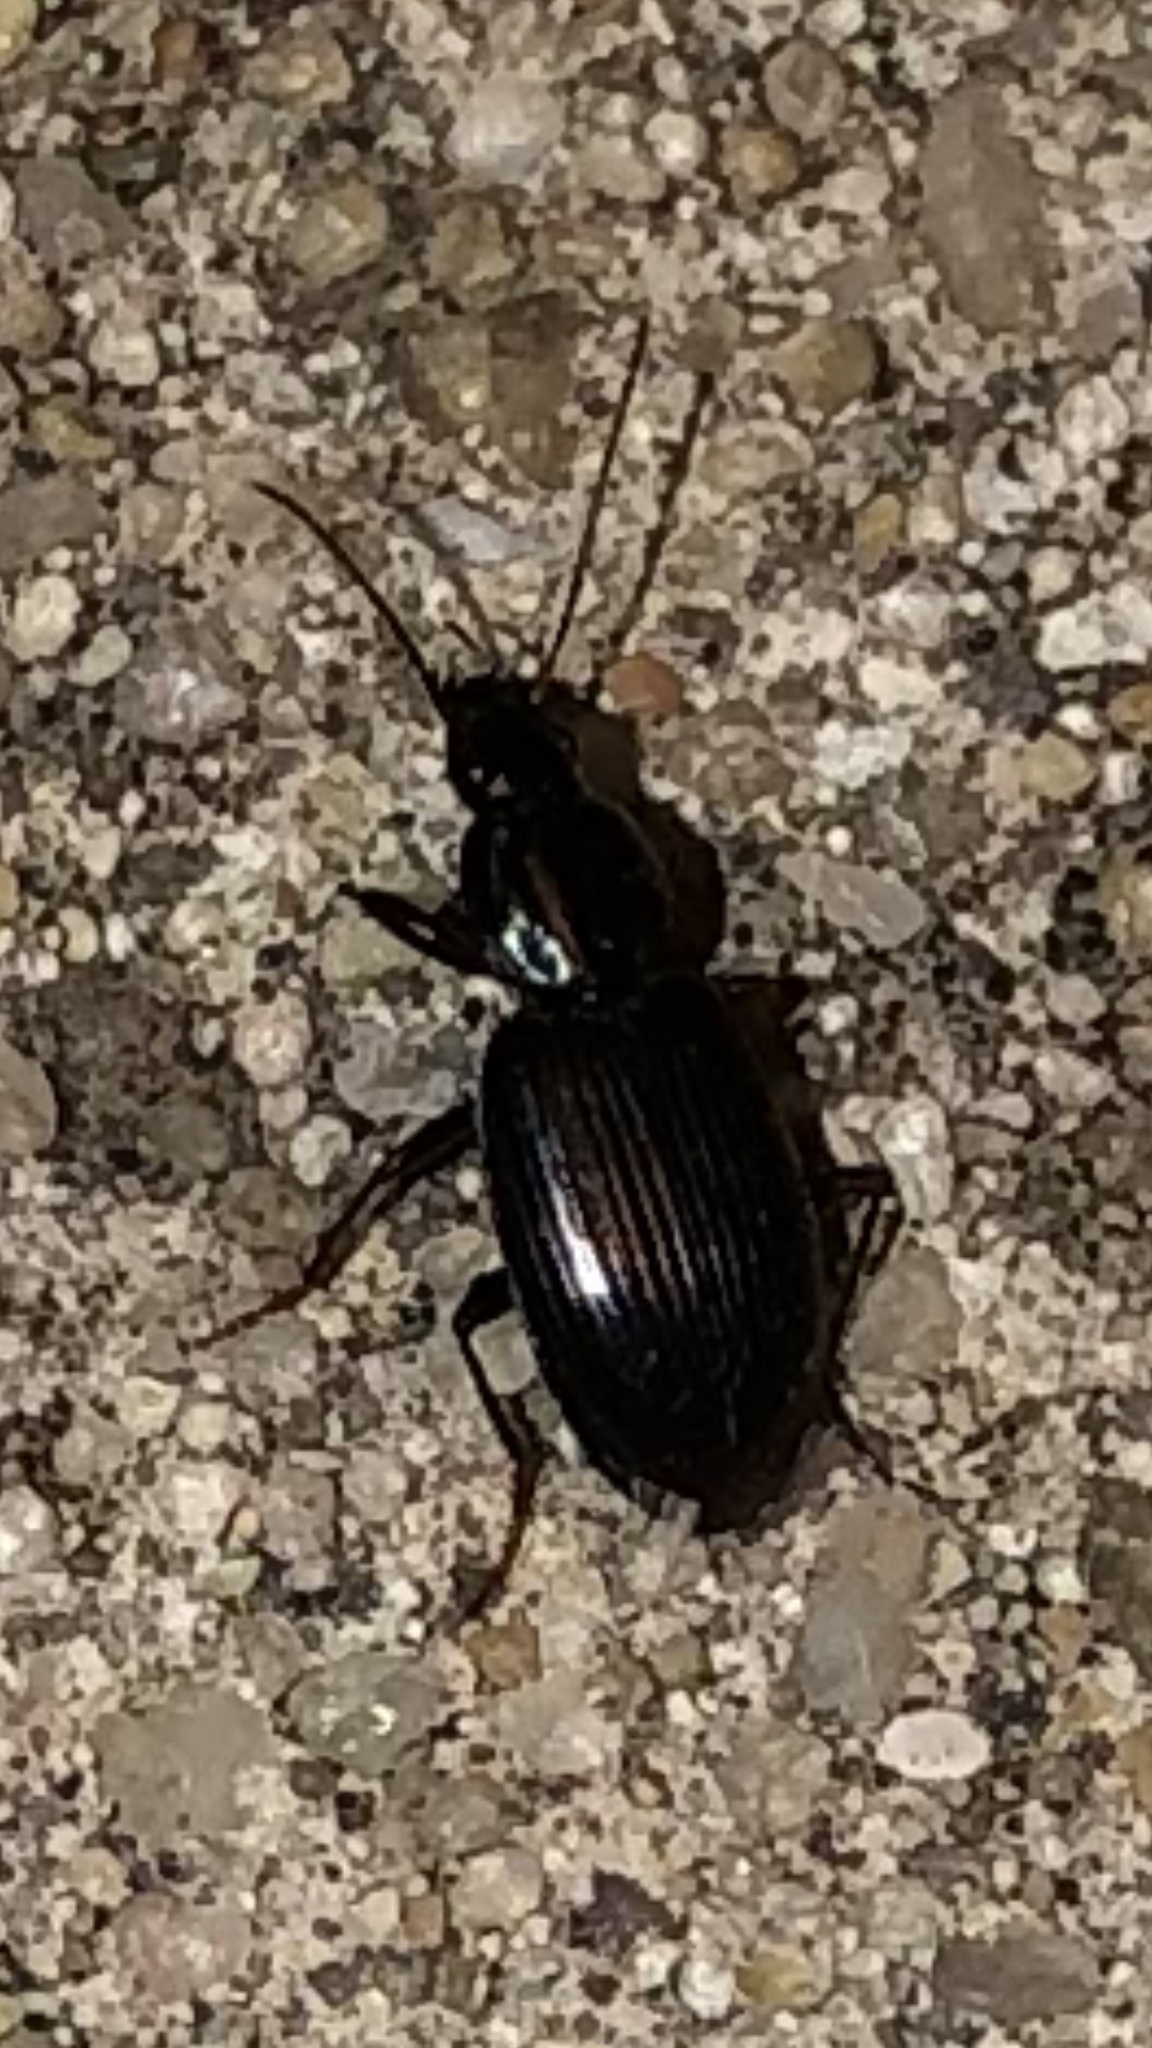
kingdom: Animalia
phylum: Arthropoda
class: Insecta
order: Coleoptera
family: Carabidae
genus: Agonum
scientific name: Agonum punctiforme
